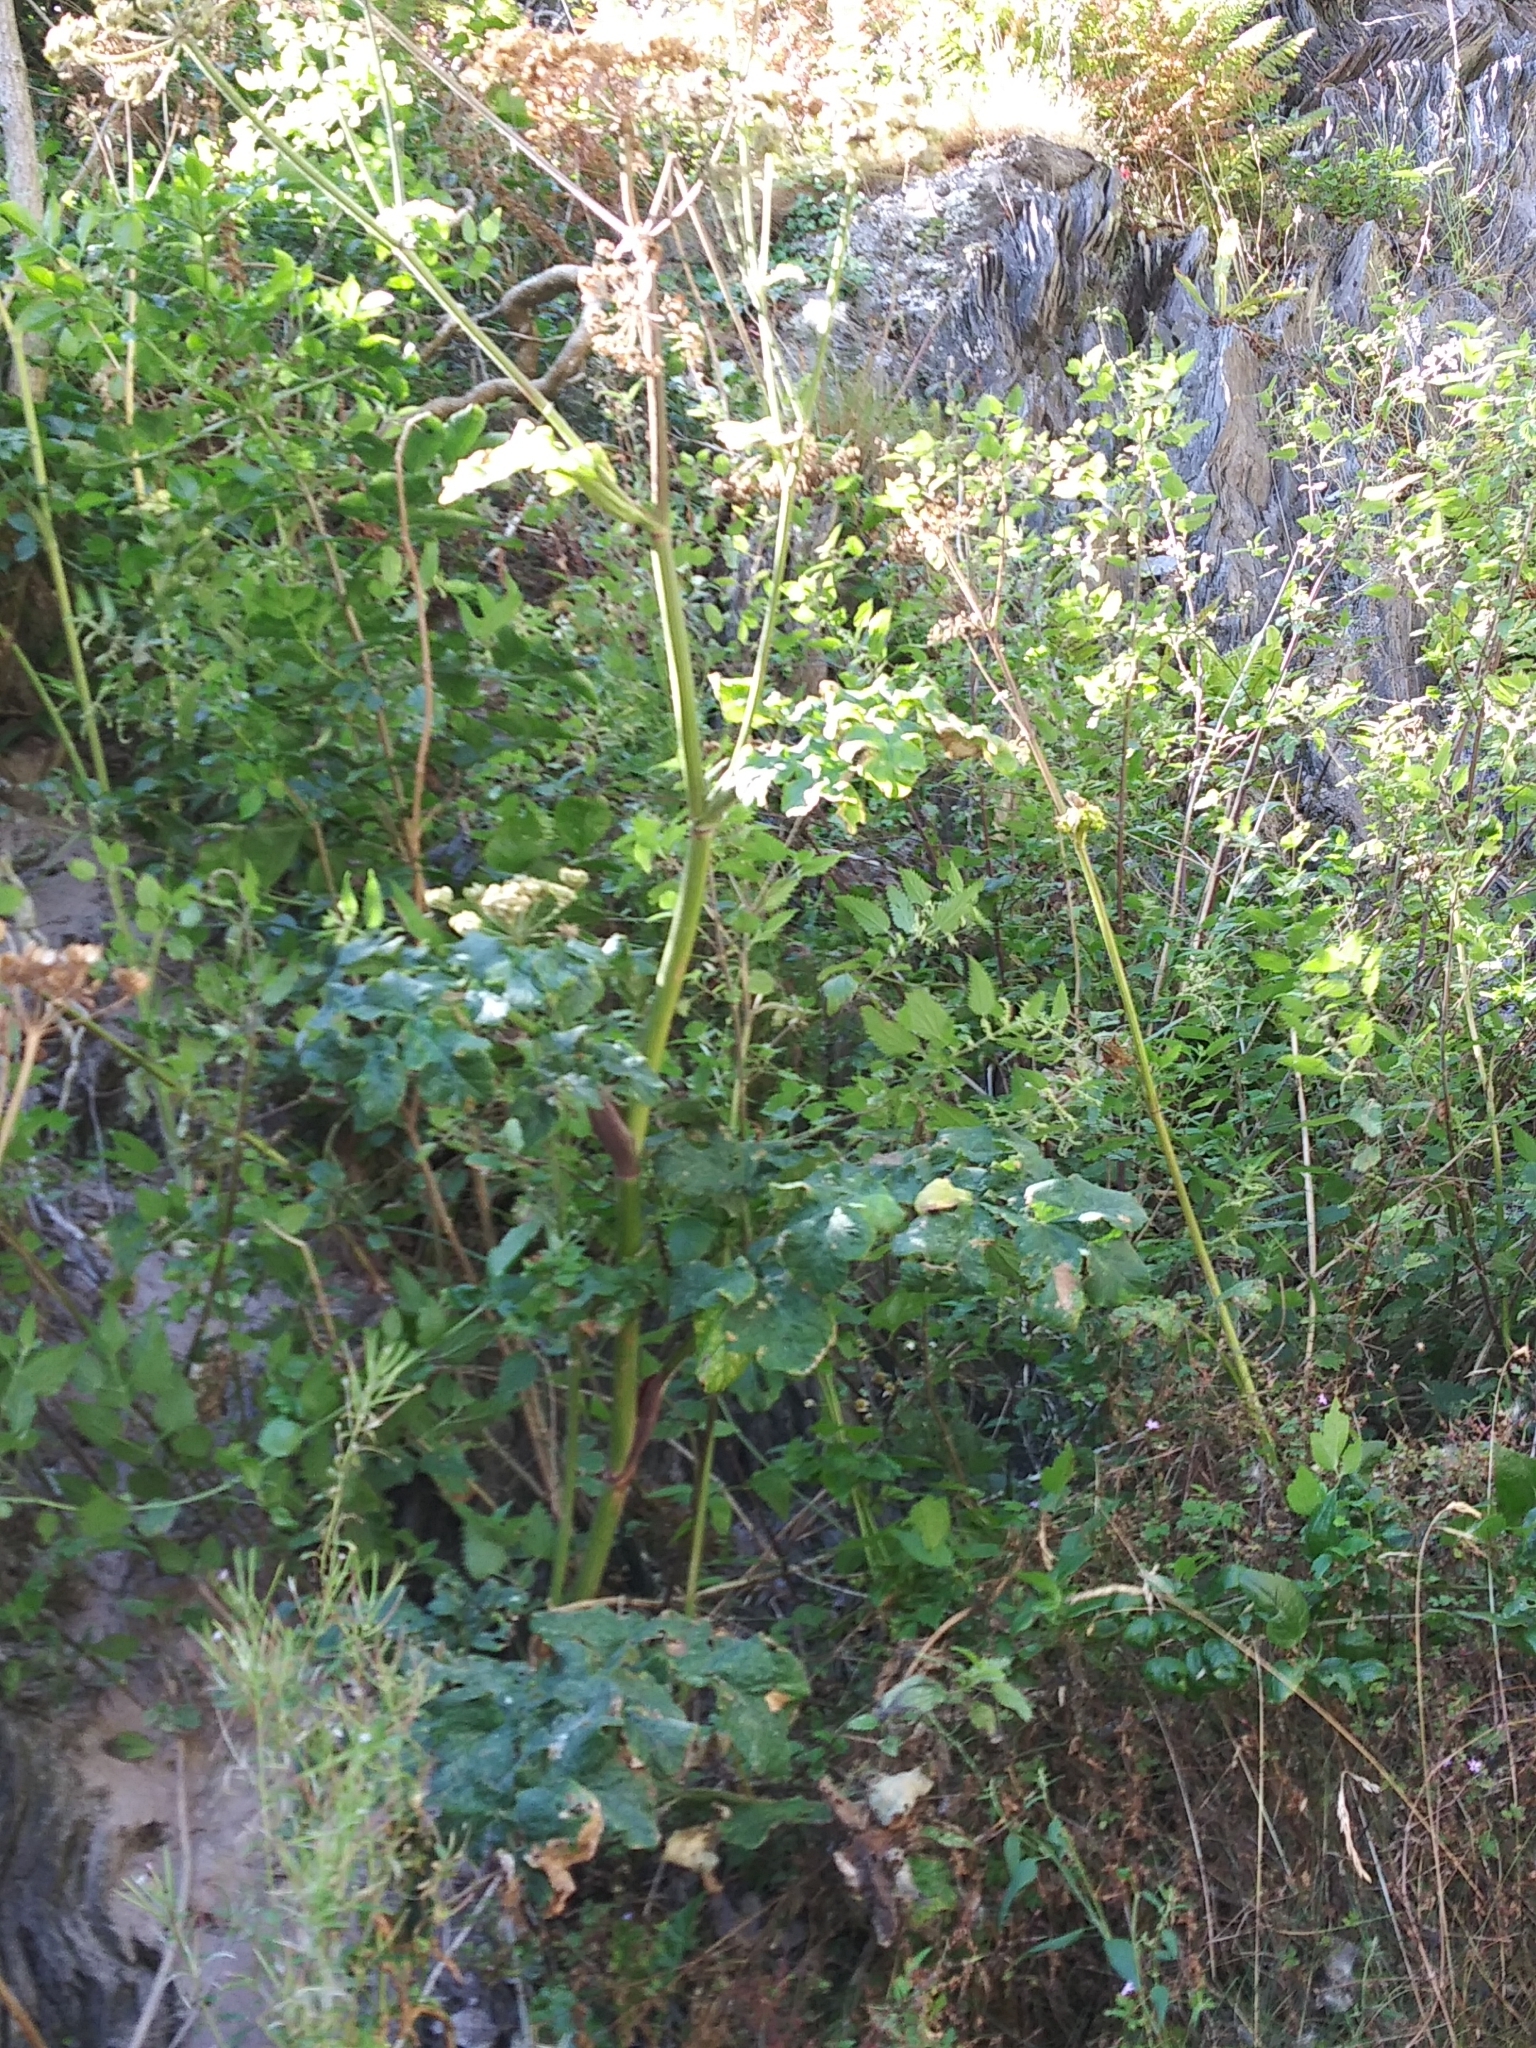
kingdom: Plantae
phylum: Tracheophyta
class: Magnoliopsida
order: Apiales
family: Apiaceae
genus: Heracleum
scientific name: Heracleum sphondylium
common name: Hogweed
